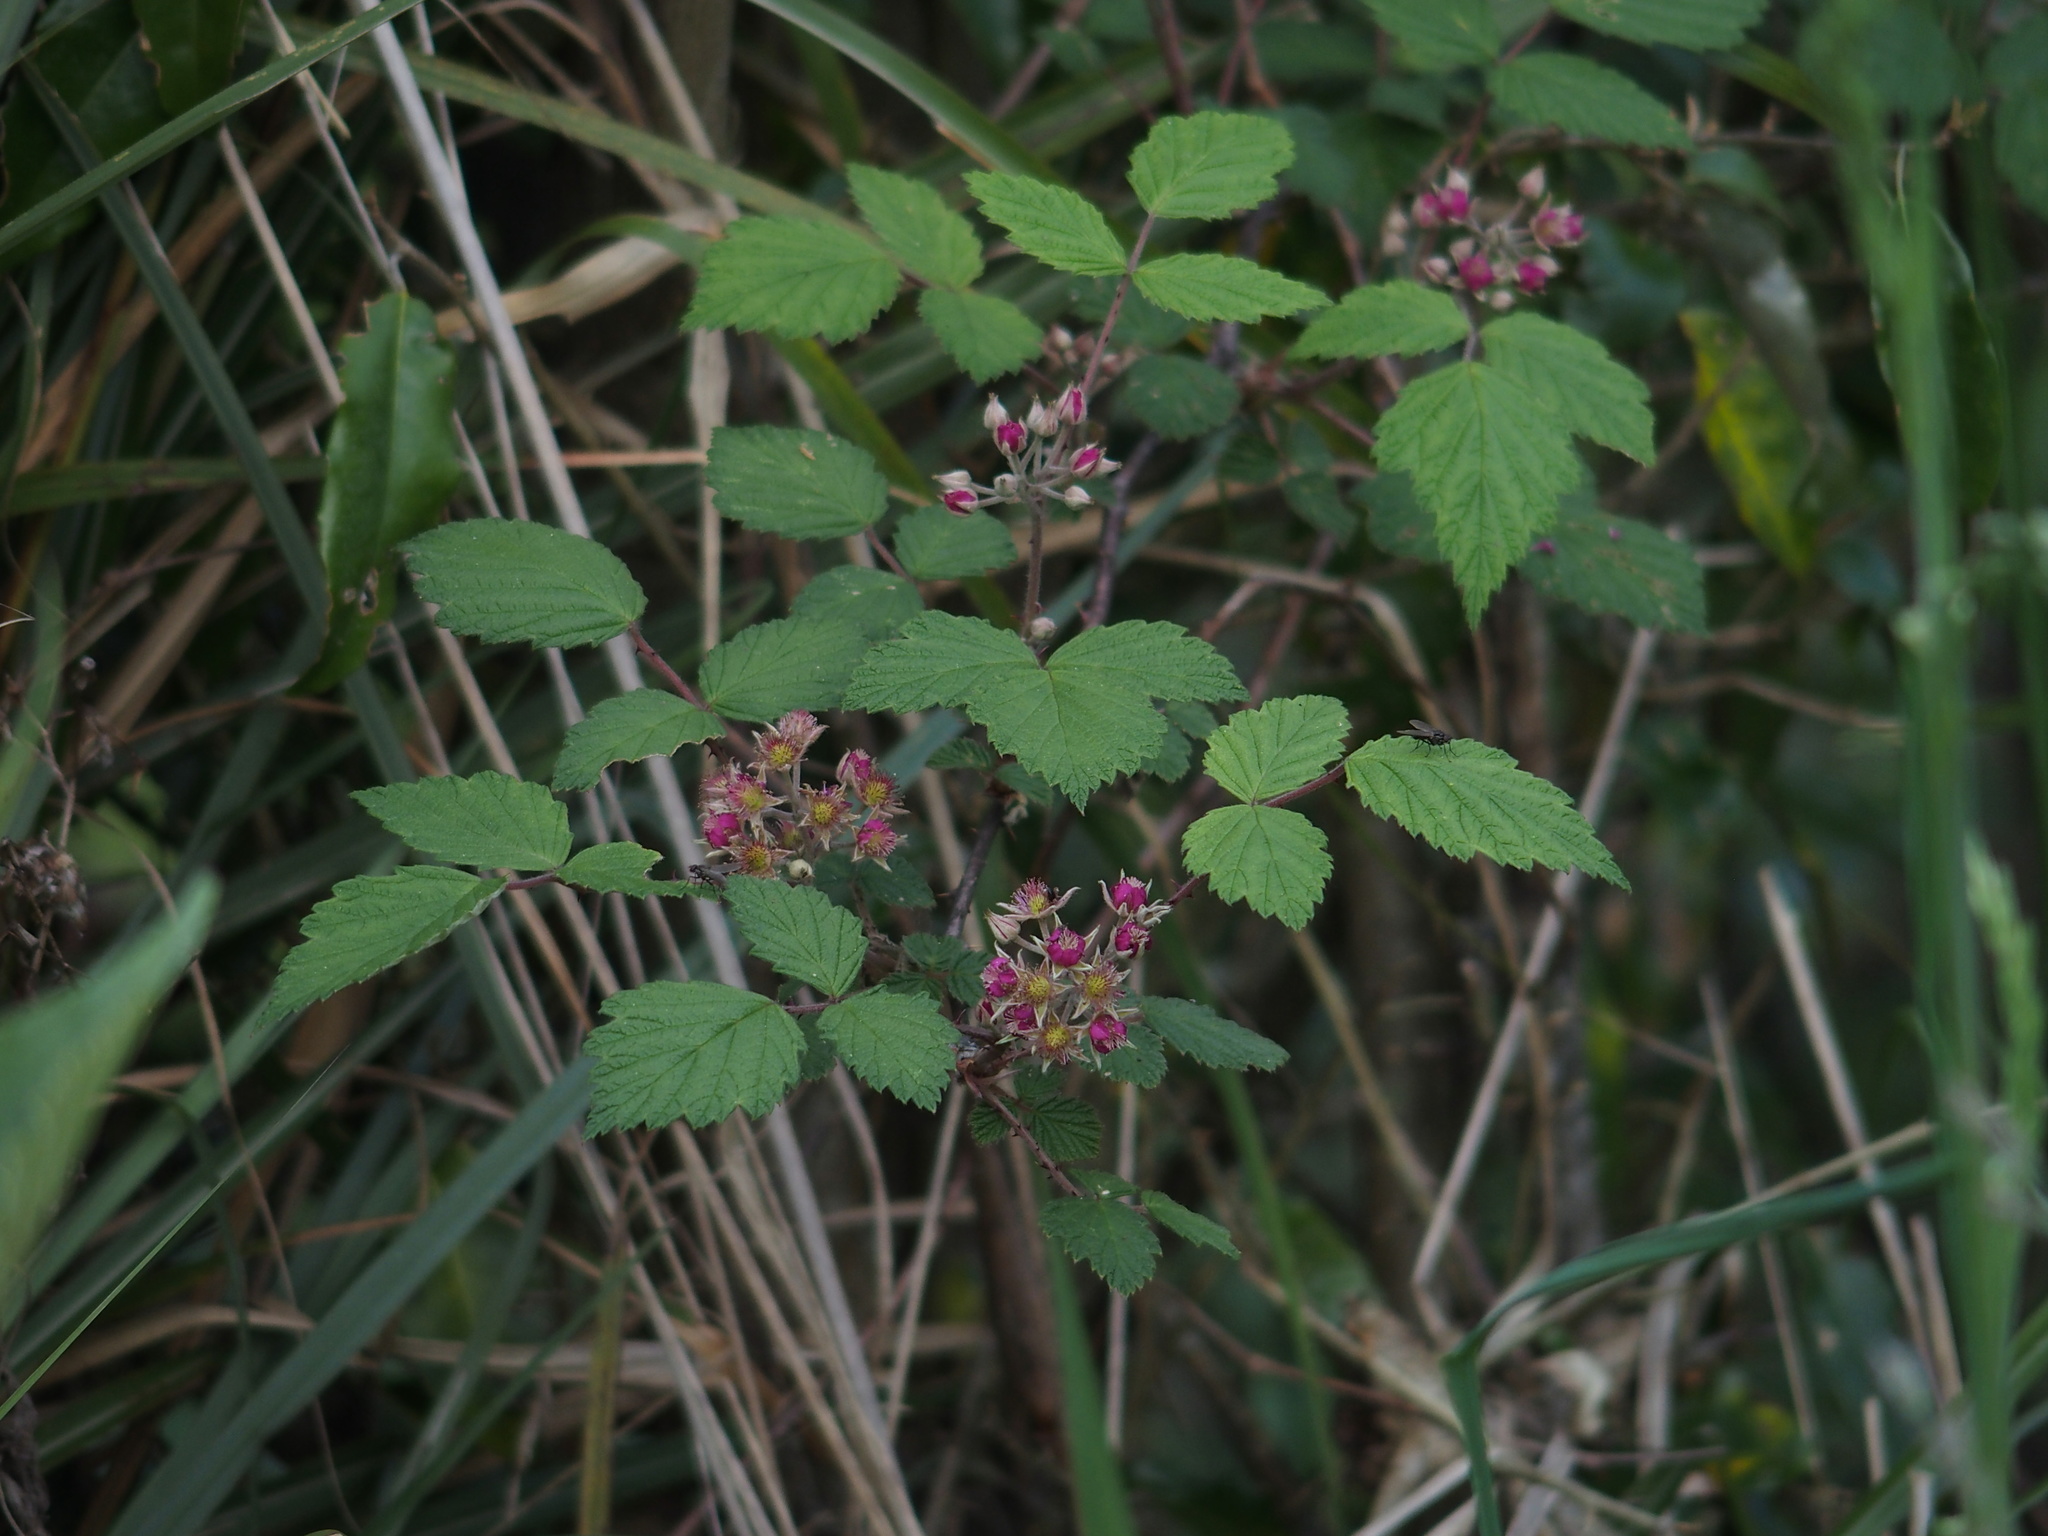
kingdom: Plantae
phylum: Tracheophyta
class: Magnoliopsida
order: Rosales
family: Rosaceae
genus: Rubus
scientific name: Rubus mesogaeus
